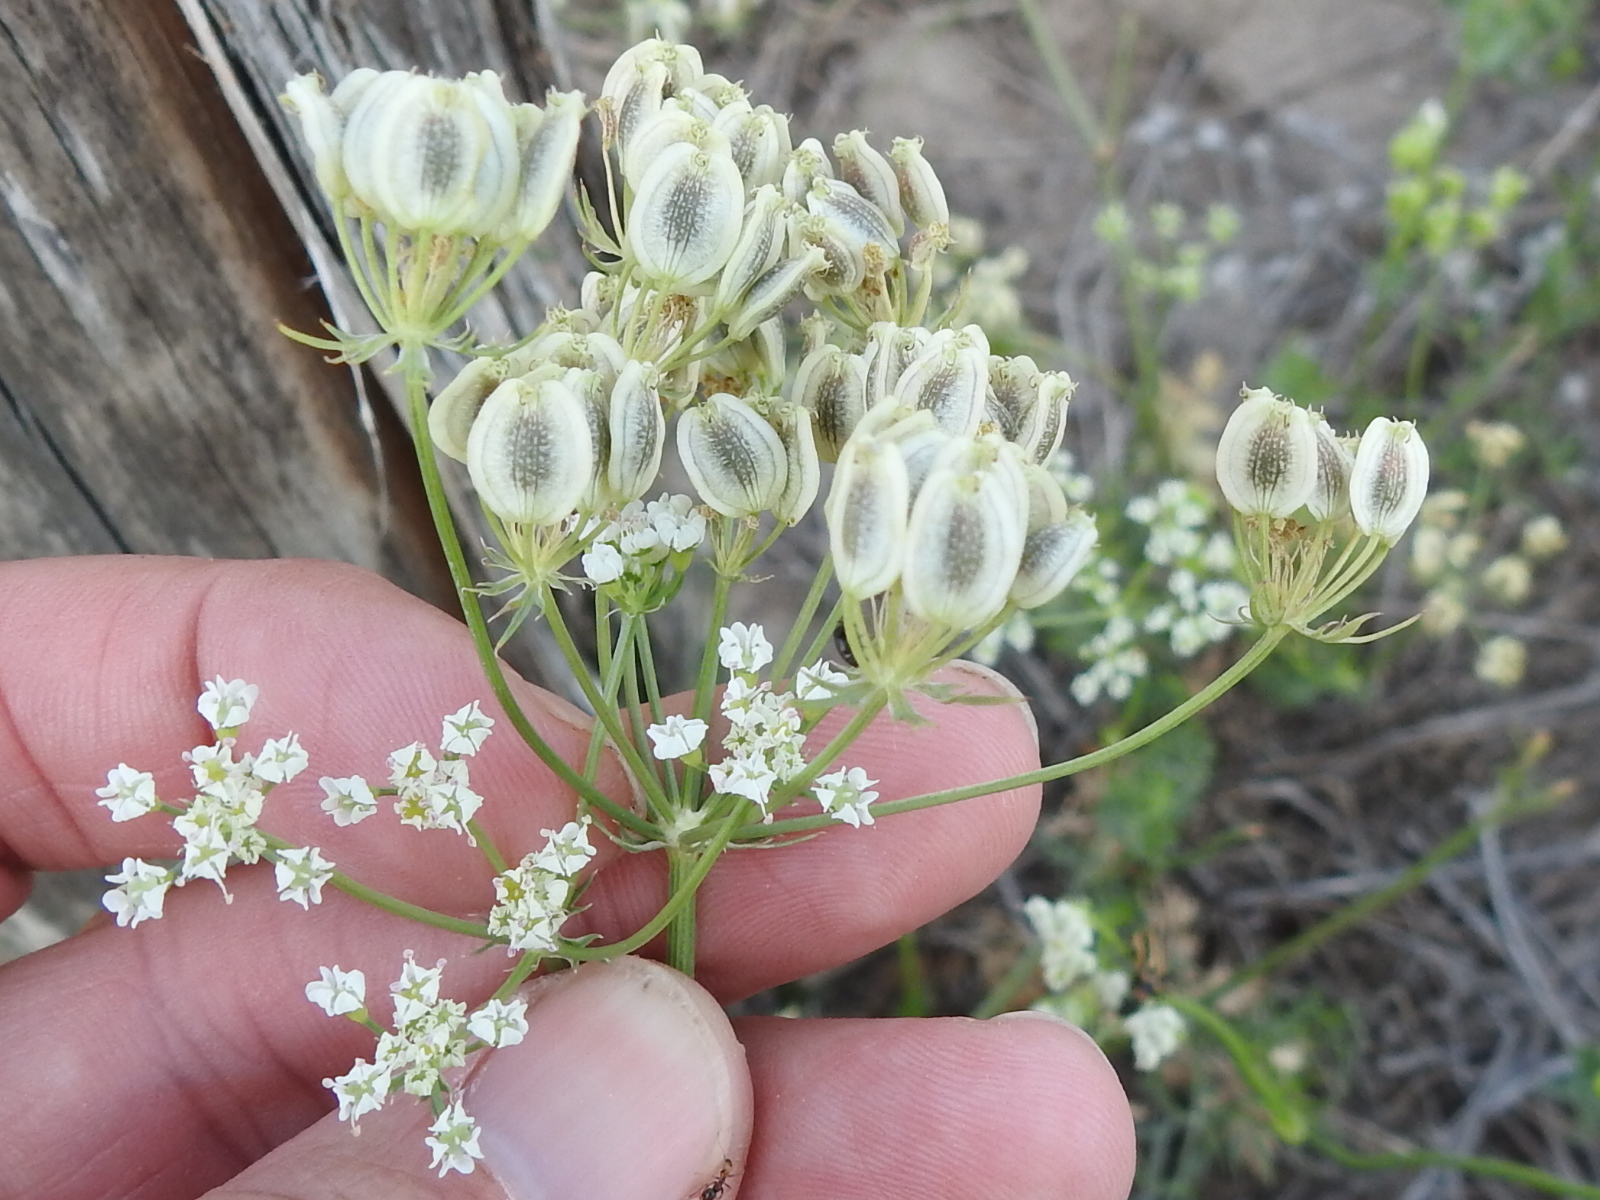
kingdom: Plantae
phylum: Tracheophyta
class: Magnoliopsida
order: Apiales
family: Apiaceae
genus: Eurytaenia
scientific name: Eurytaenia texana
